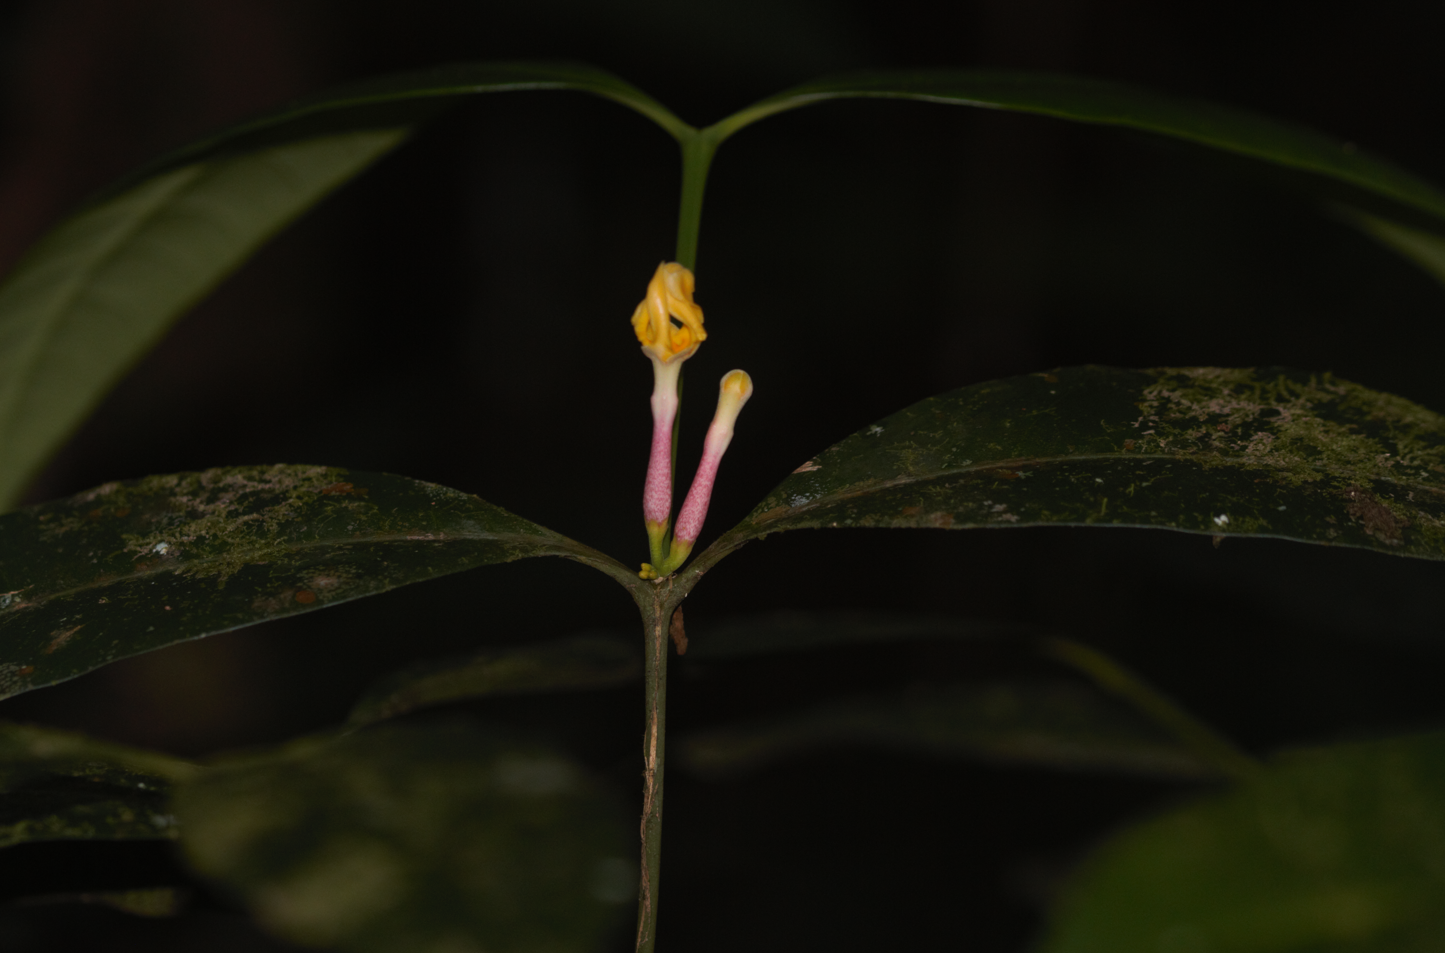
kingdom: Plantae
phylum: Tracheophyta
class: Magnoliopsida
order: Gentianales
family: Apocynaceae
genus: Tabernaemontana
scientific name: Tabernaemontana disticha
